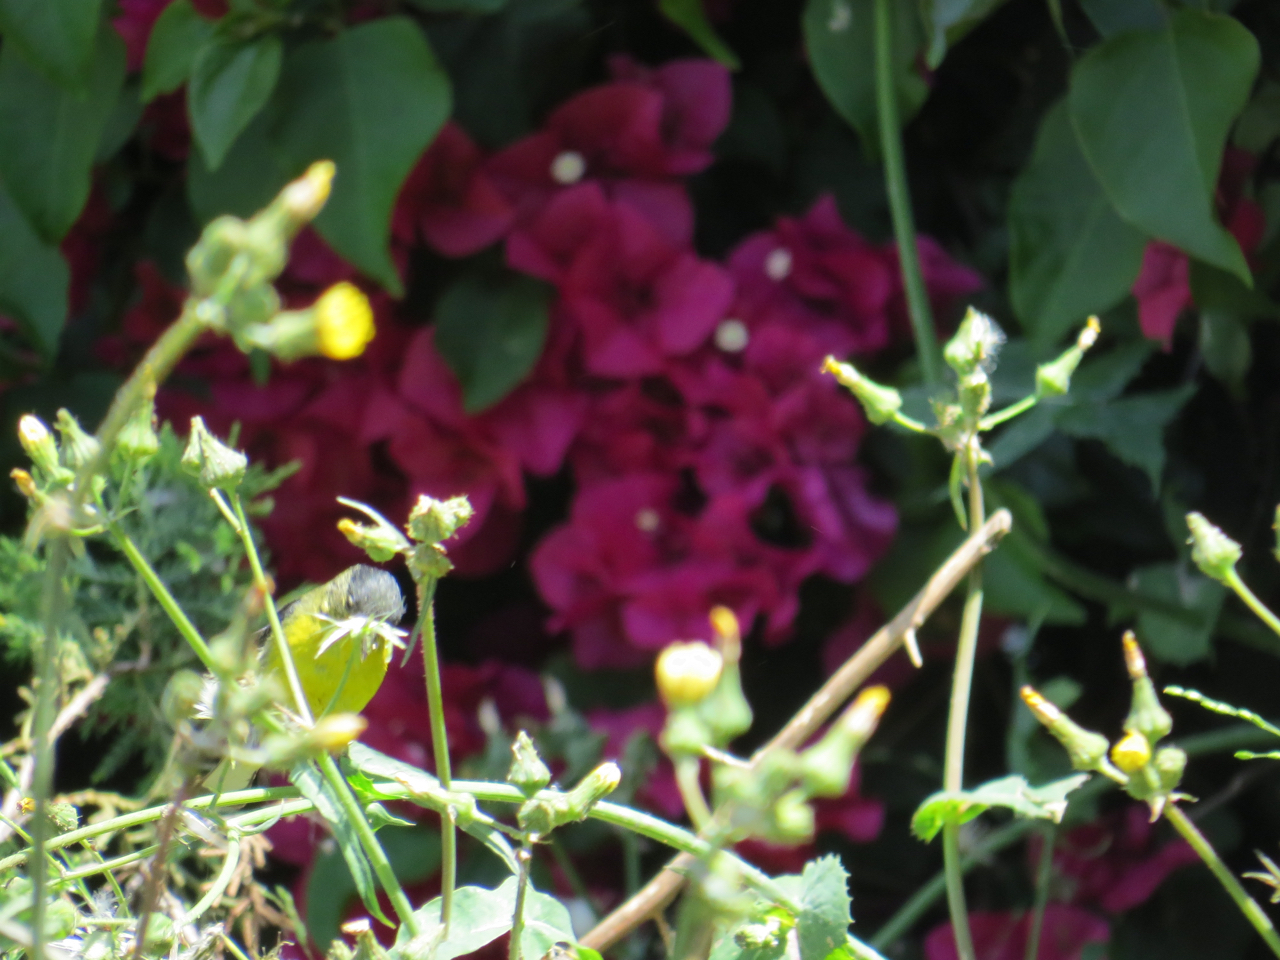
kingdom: Animalia
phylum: Chordata
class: Aves
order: Passeriformes
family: Fringillidae
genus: Spinus
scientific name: Spinus psaltria
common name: Lesser goldfinch
